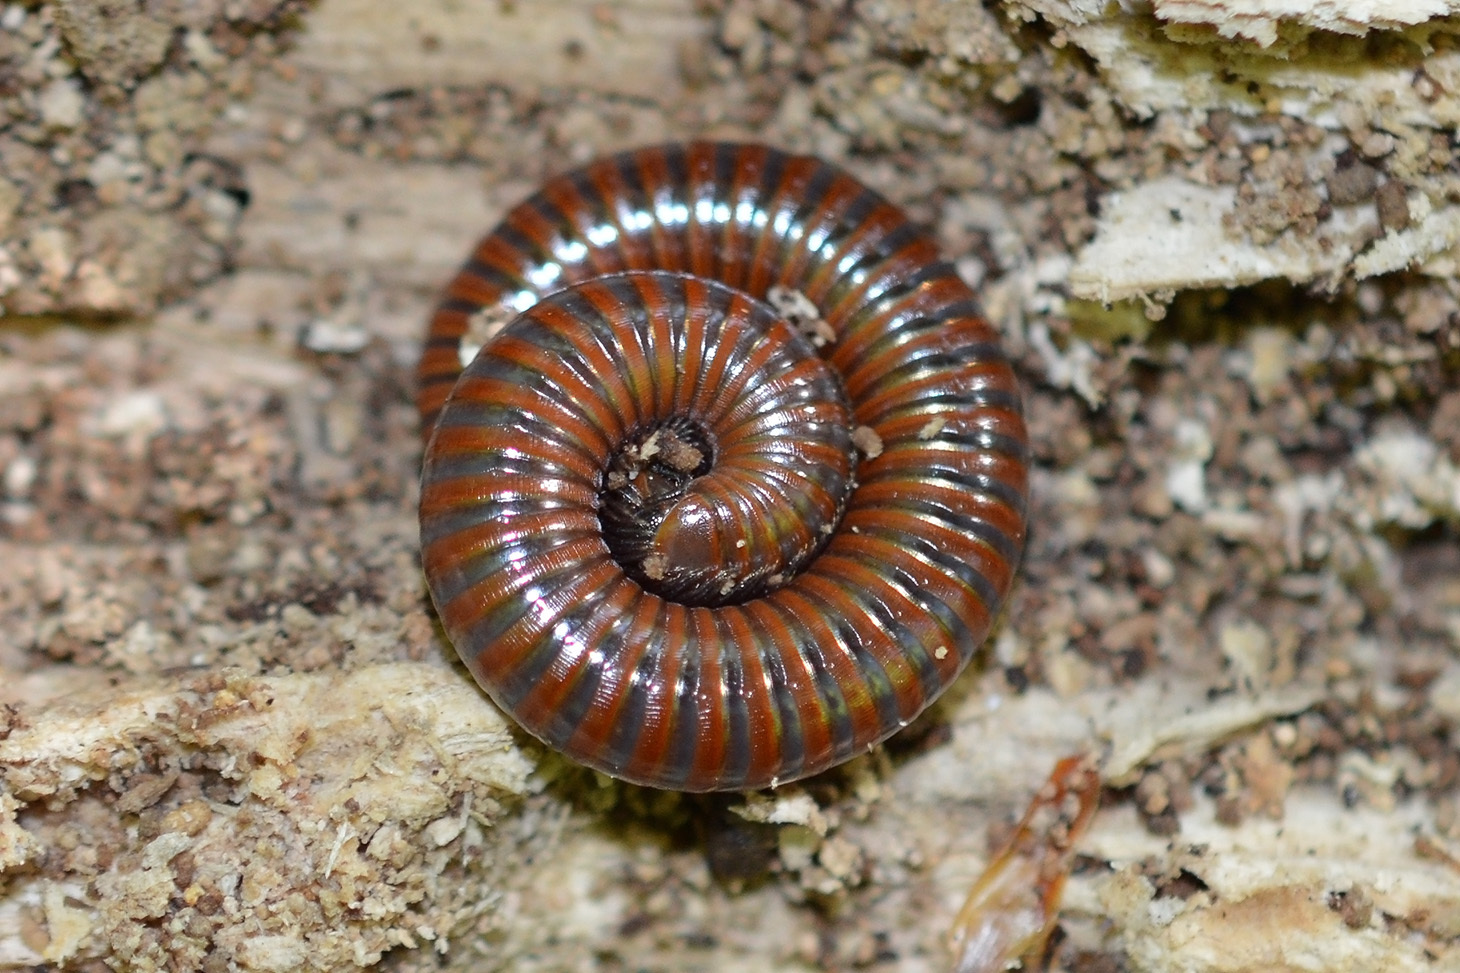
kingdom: Animalia
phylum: Arthropoda
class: Diplopoda
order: Julida
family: Julidae
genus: Pachyiulus
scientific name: Pachyiulus hungaricus
